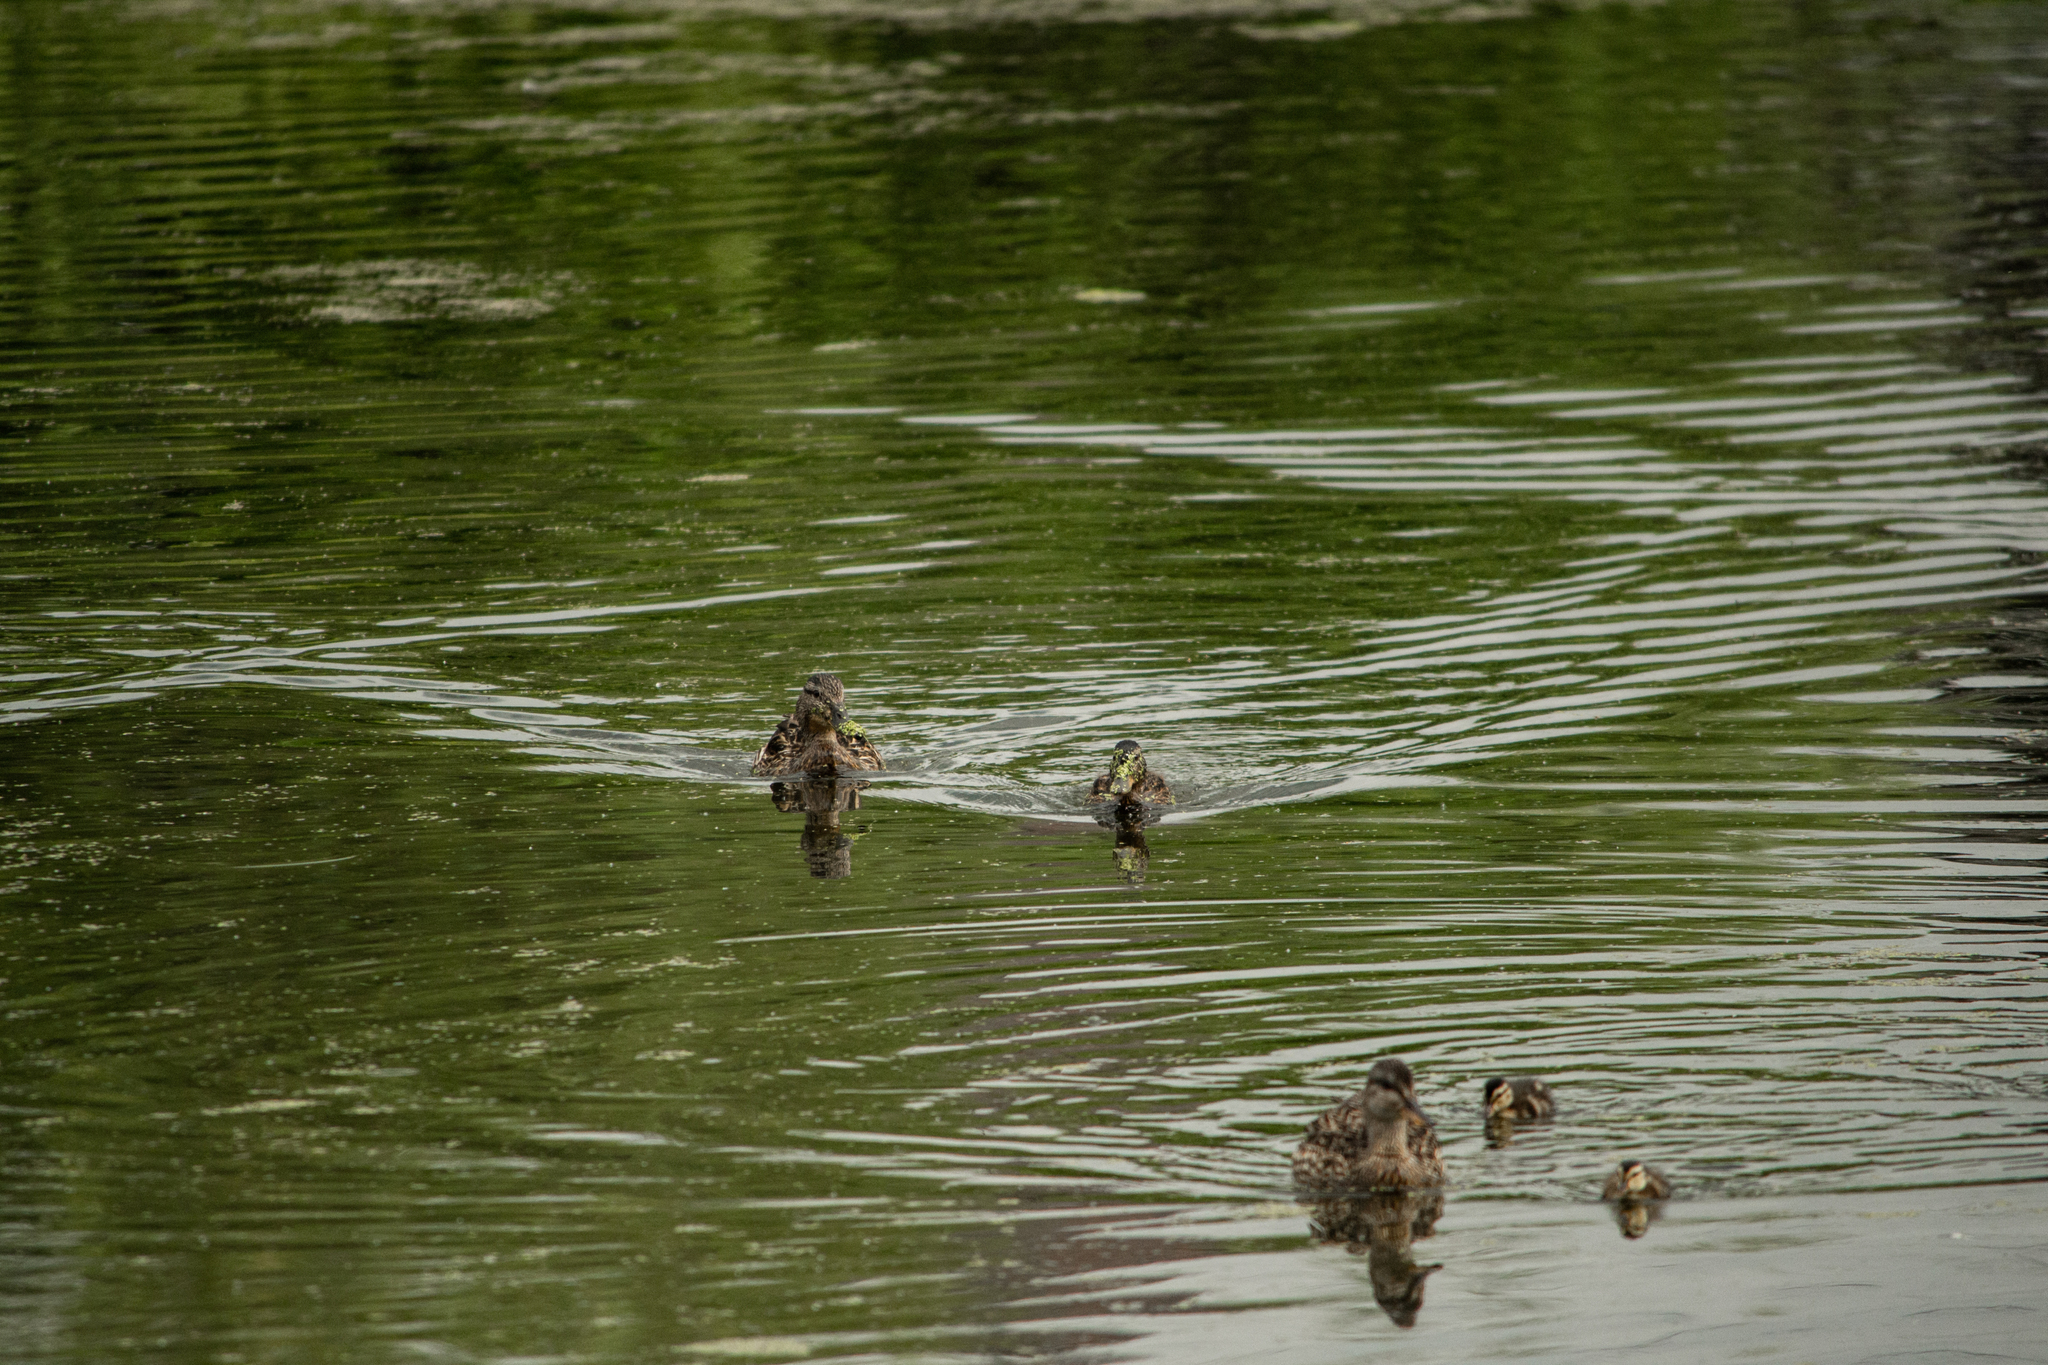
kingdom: Animalia
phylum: Chordata
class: Aves
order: Anseriformes
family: Anatidae
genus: Anas
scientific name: Anas platyrhynchos
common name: Mallard
